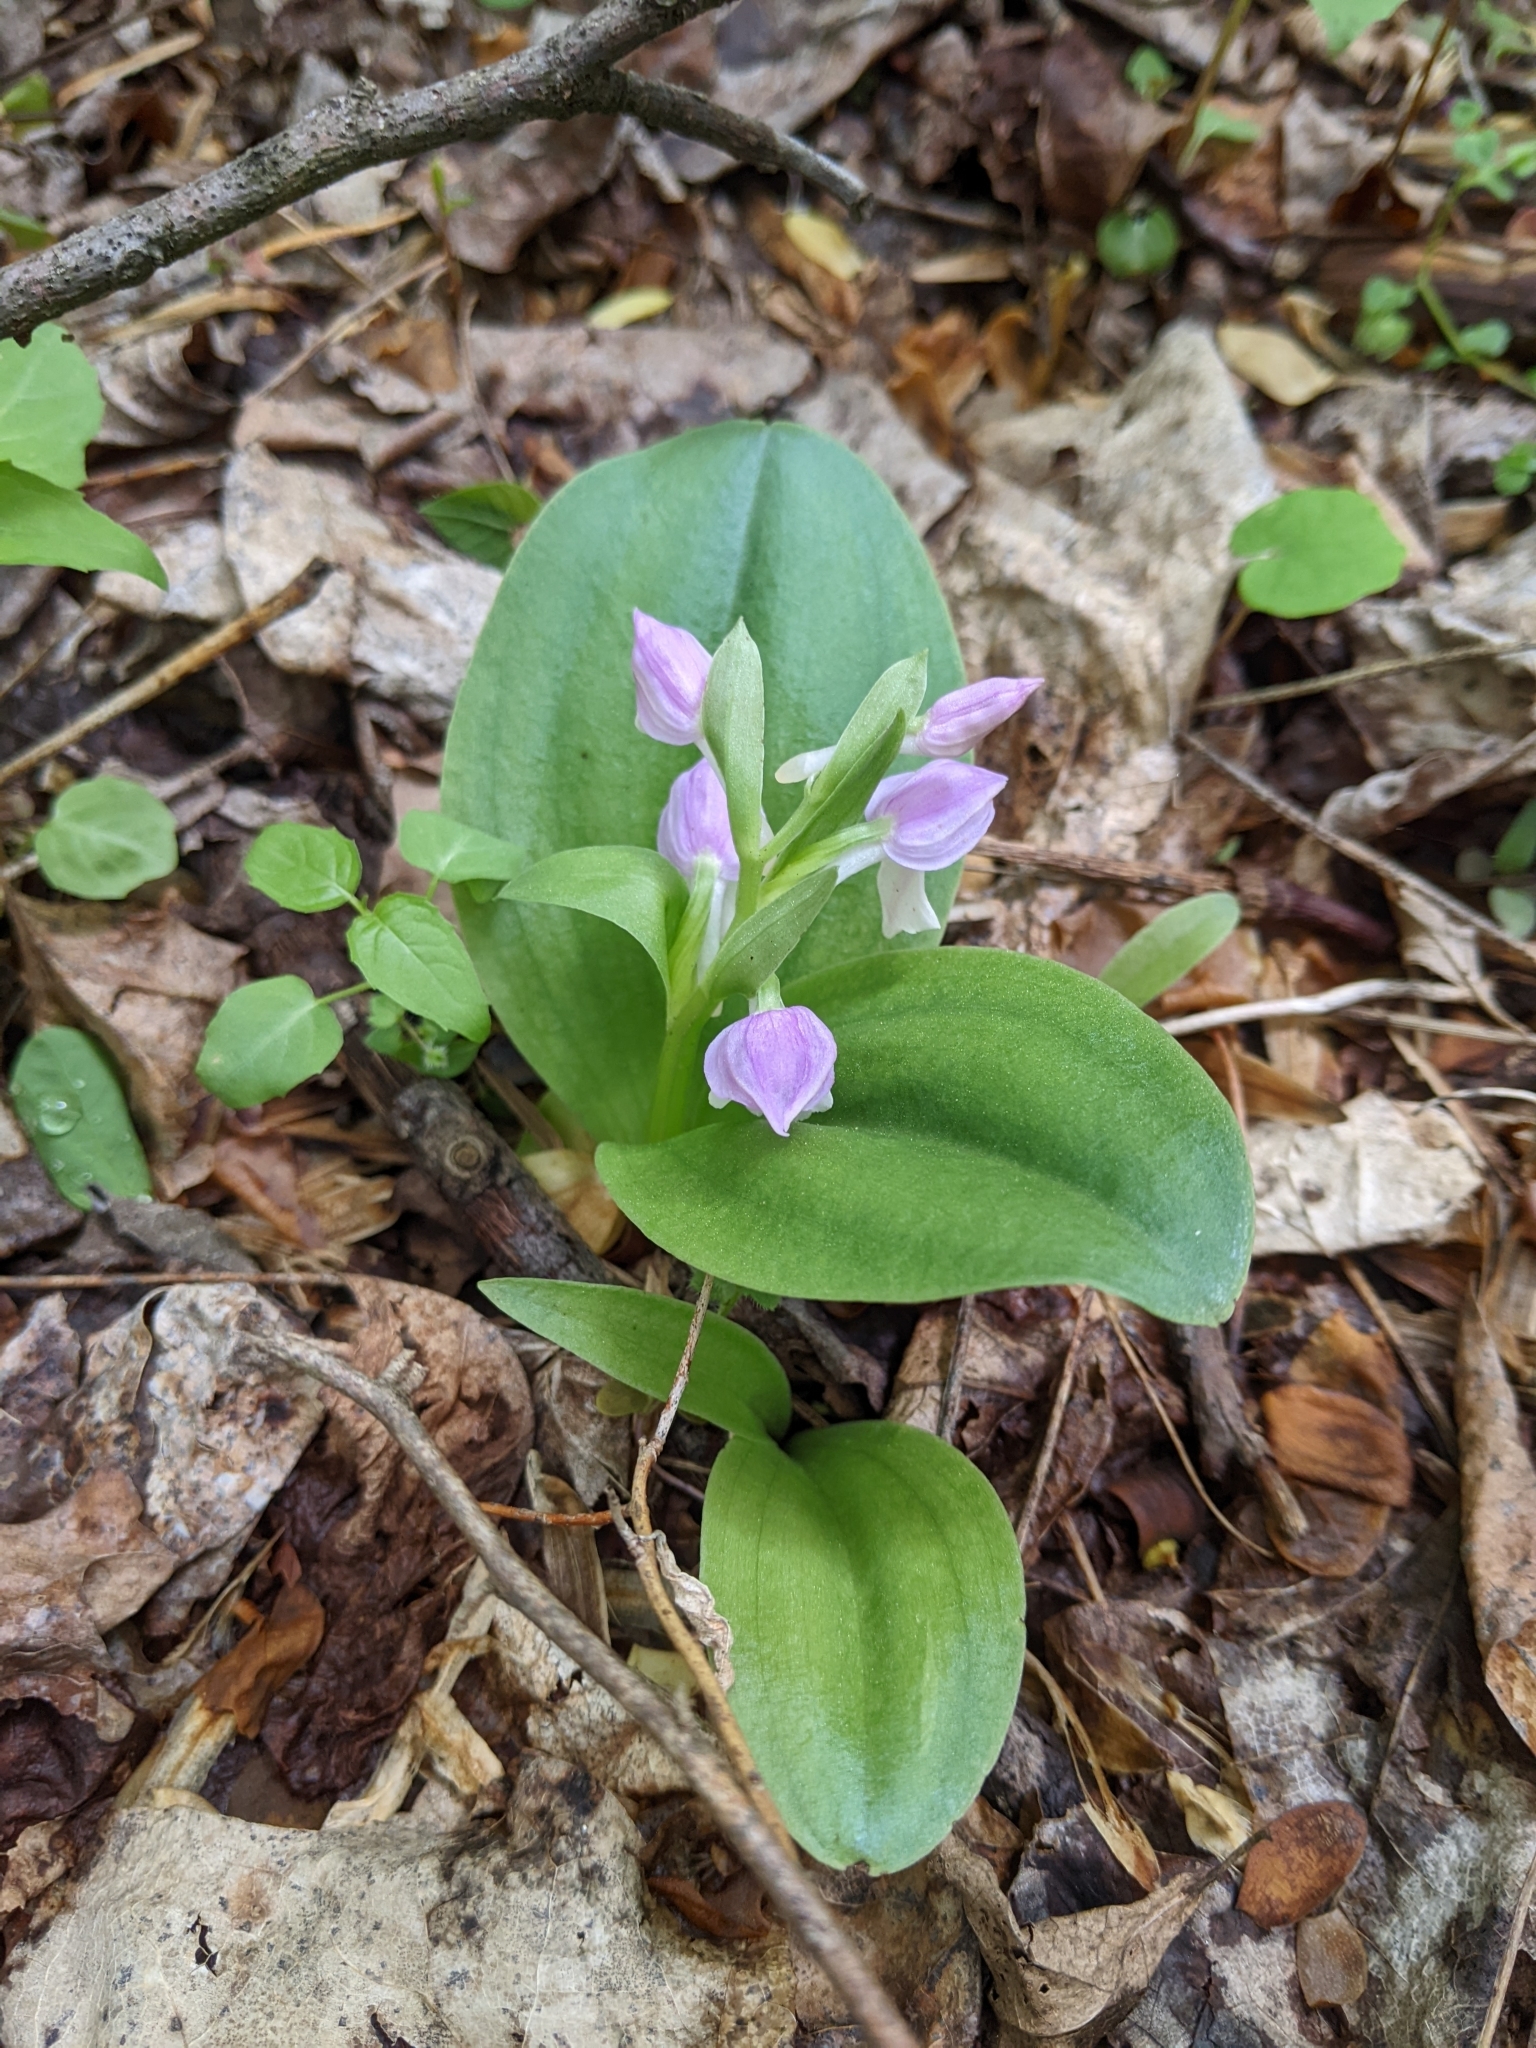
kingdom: Plantae
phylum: Tracheophyta
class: Liliopsida
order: Asparagales
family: Orchidaceae
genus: Galearis
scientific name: Galearis spectabilis
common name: Purple-hooded orchis
